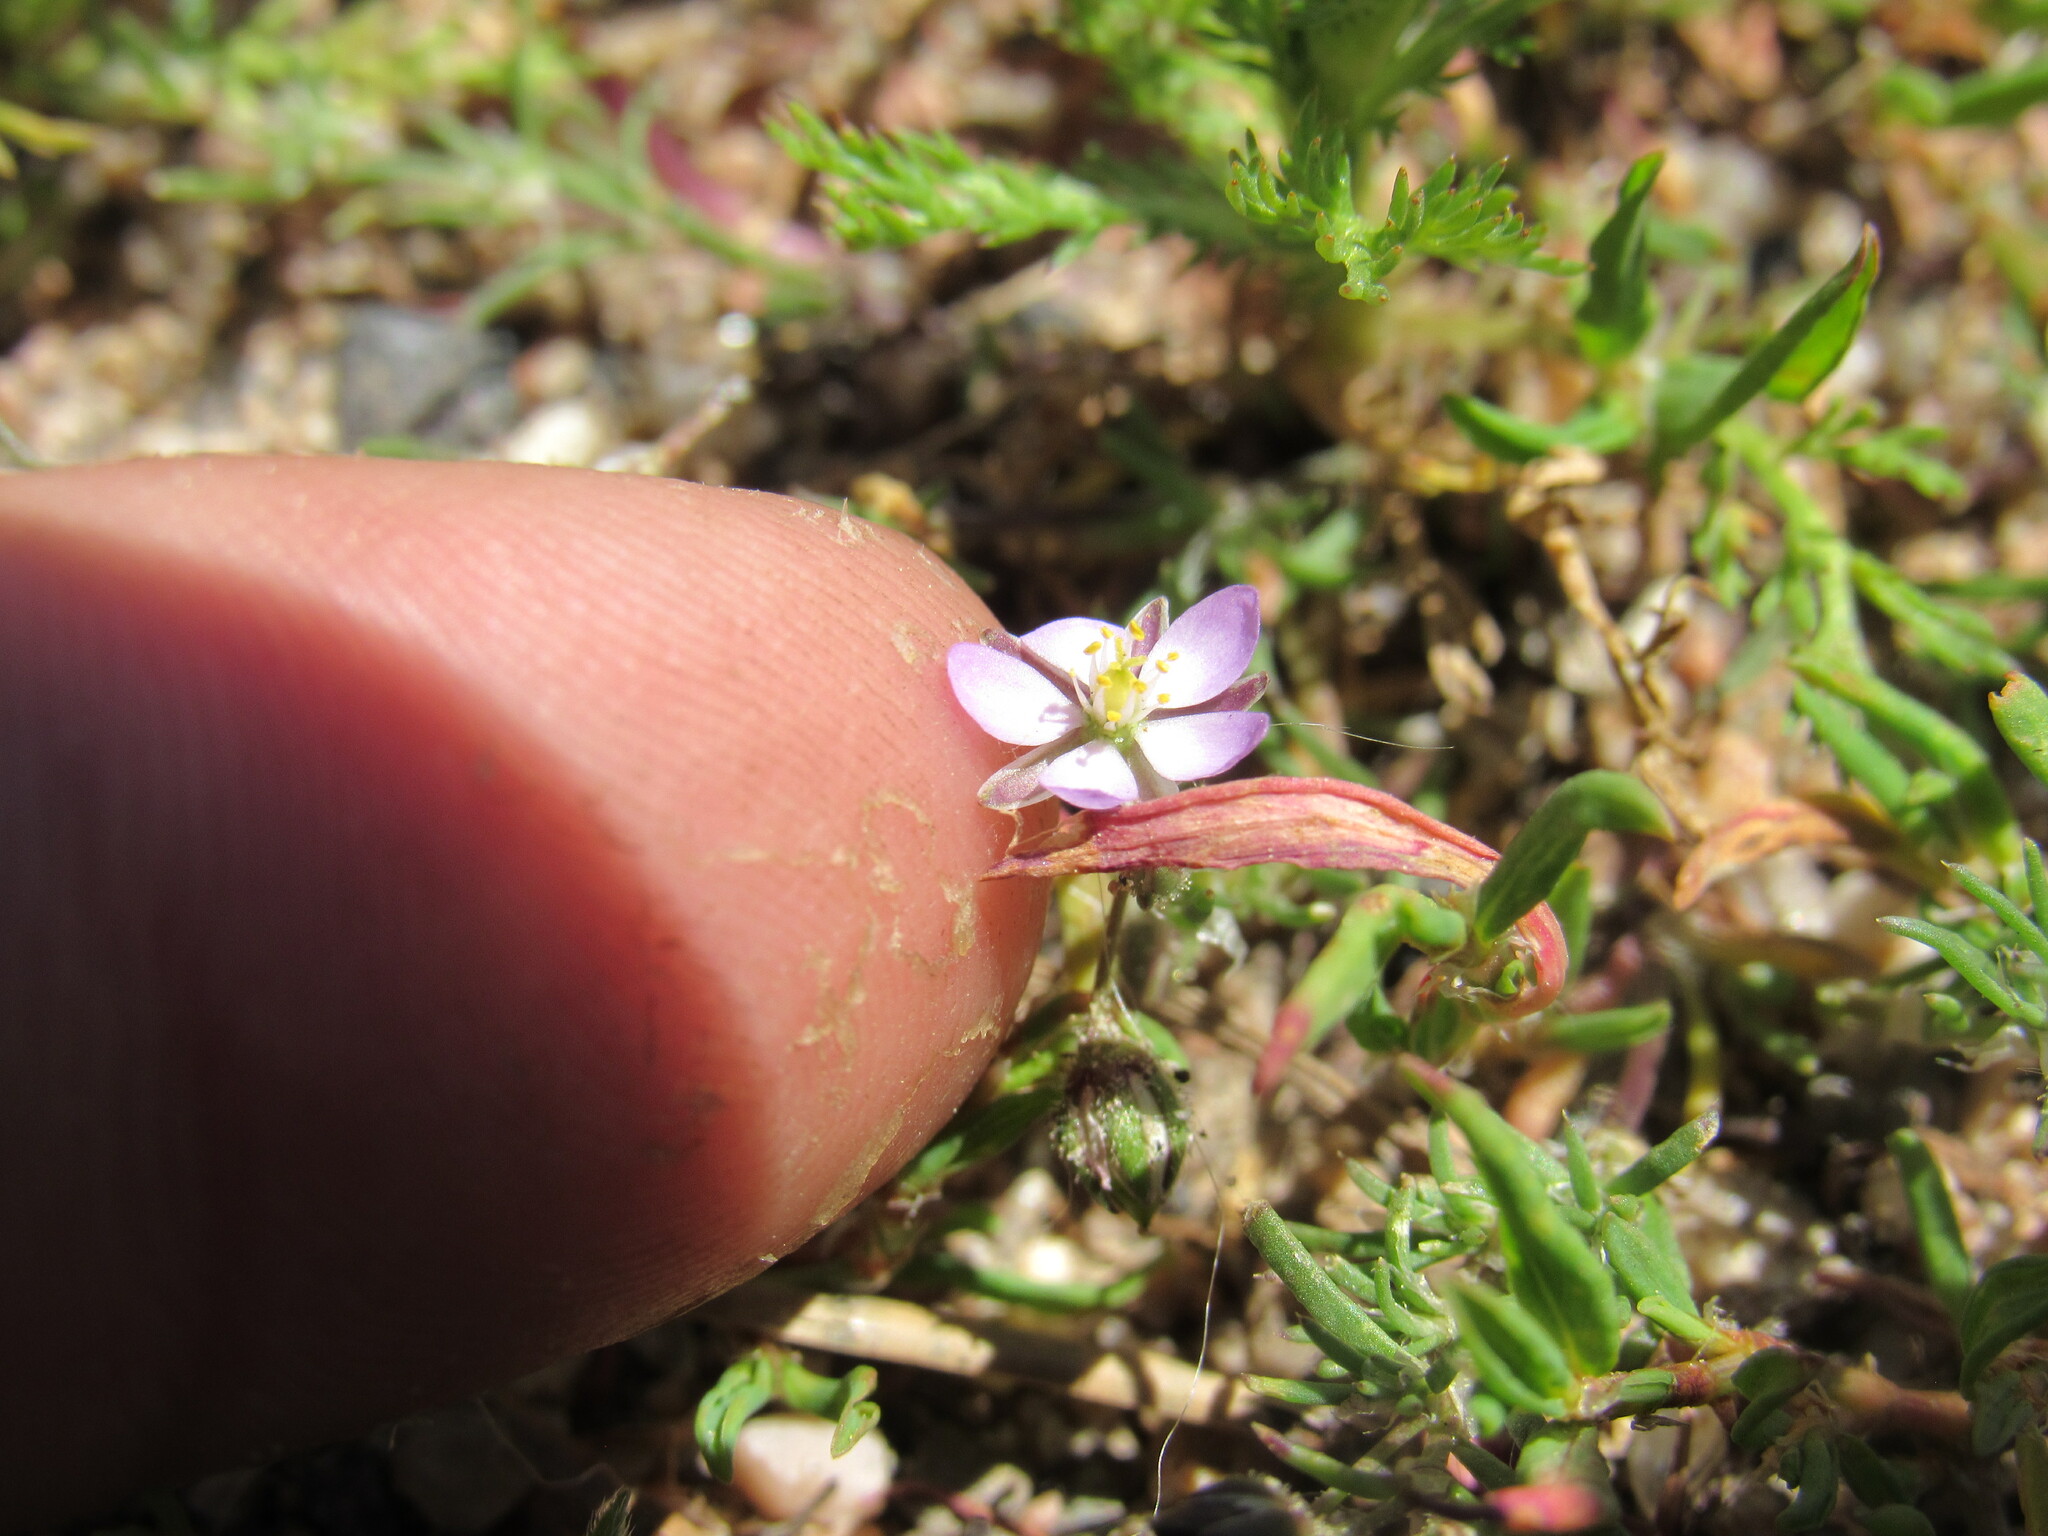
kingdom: Plantae
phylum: Tracheophyta
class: Magnoliopsida
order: Caryophyllales
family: Caryophyllaceae
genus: Spergularia
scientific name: Spergularia rubra
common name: Red sand-spurrey
